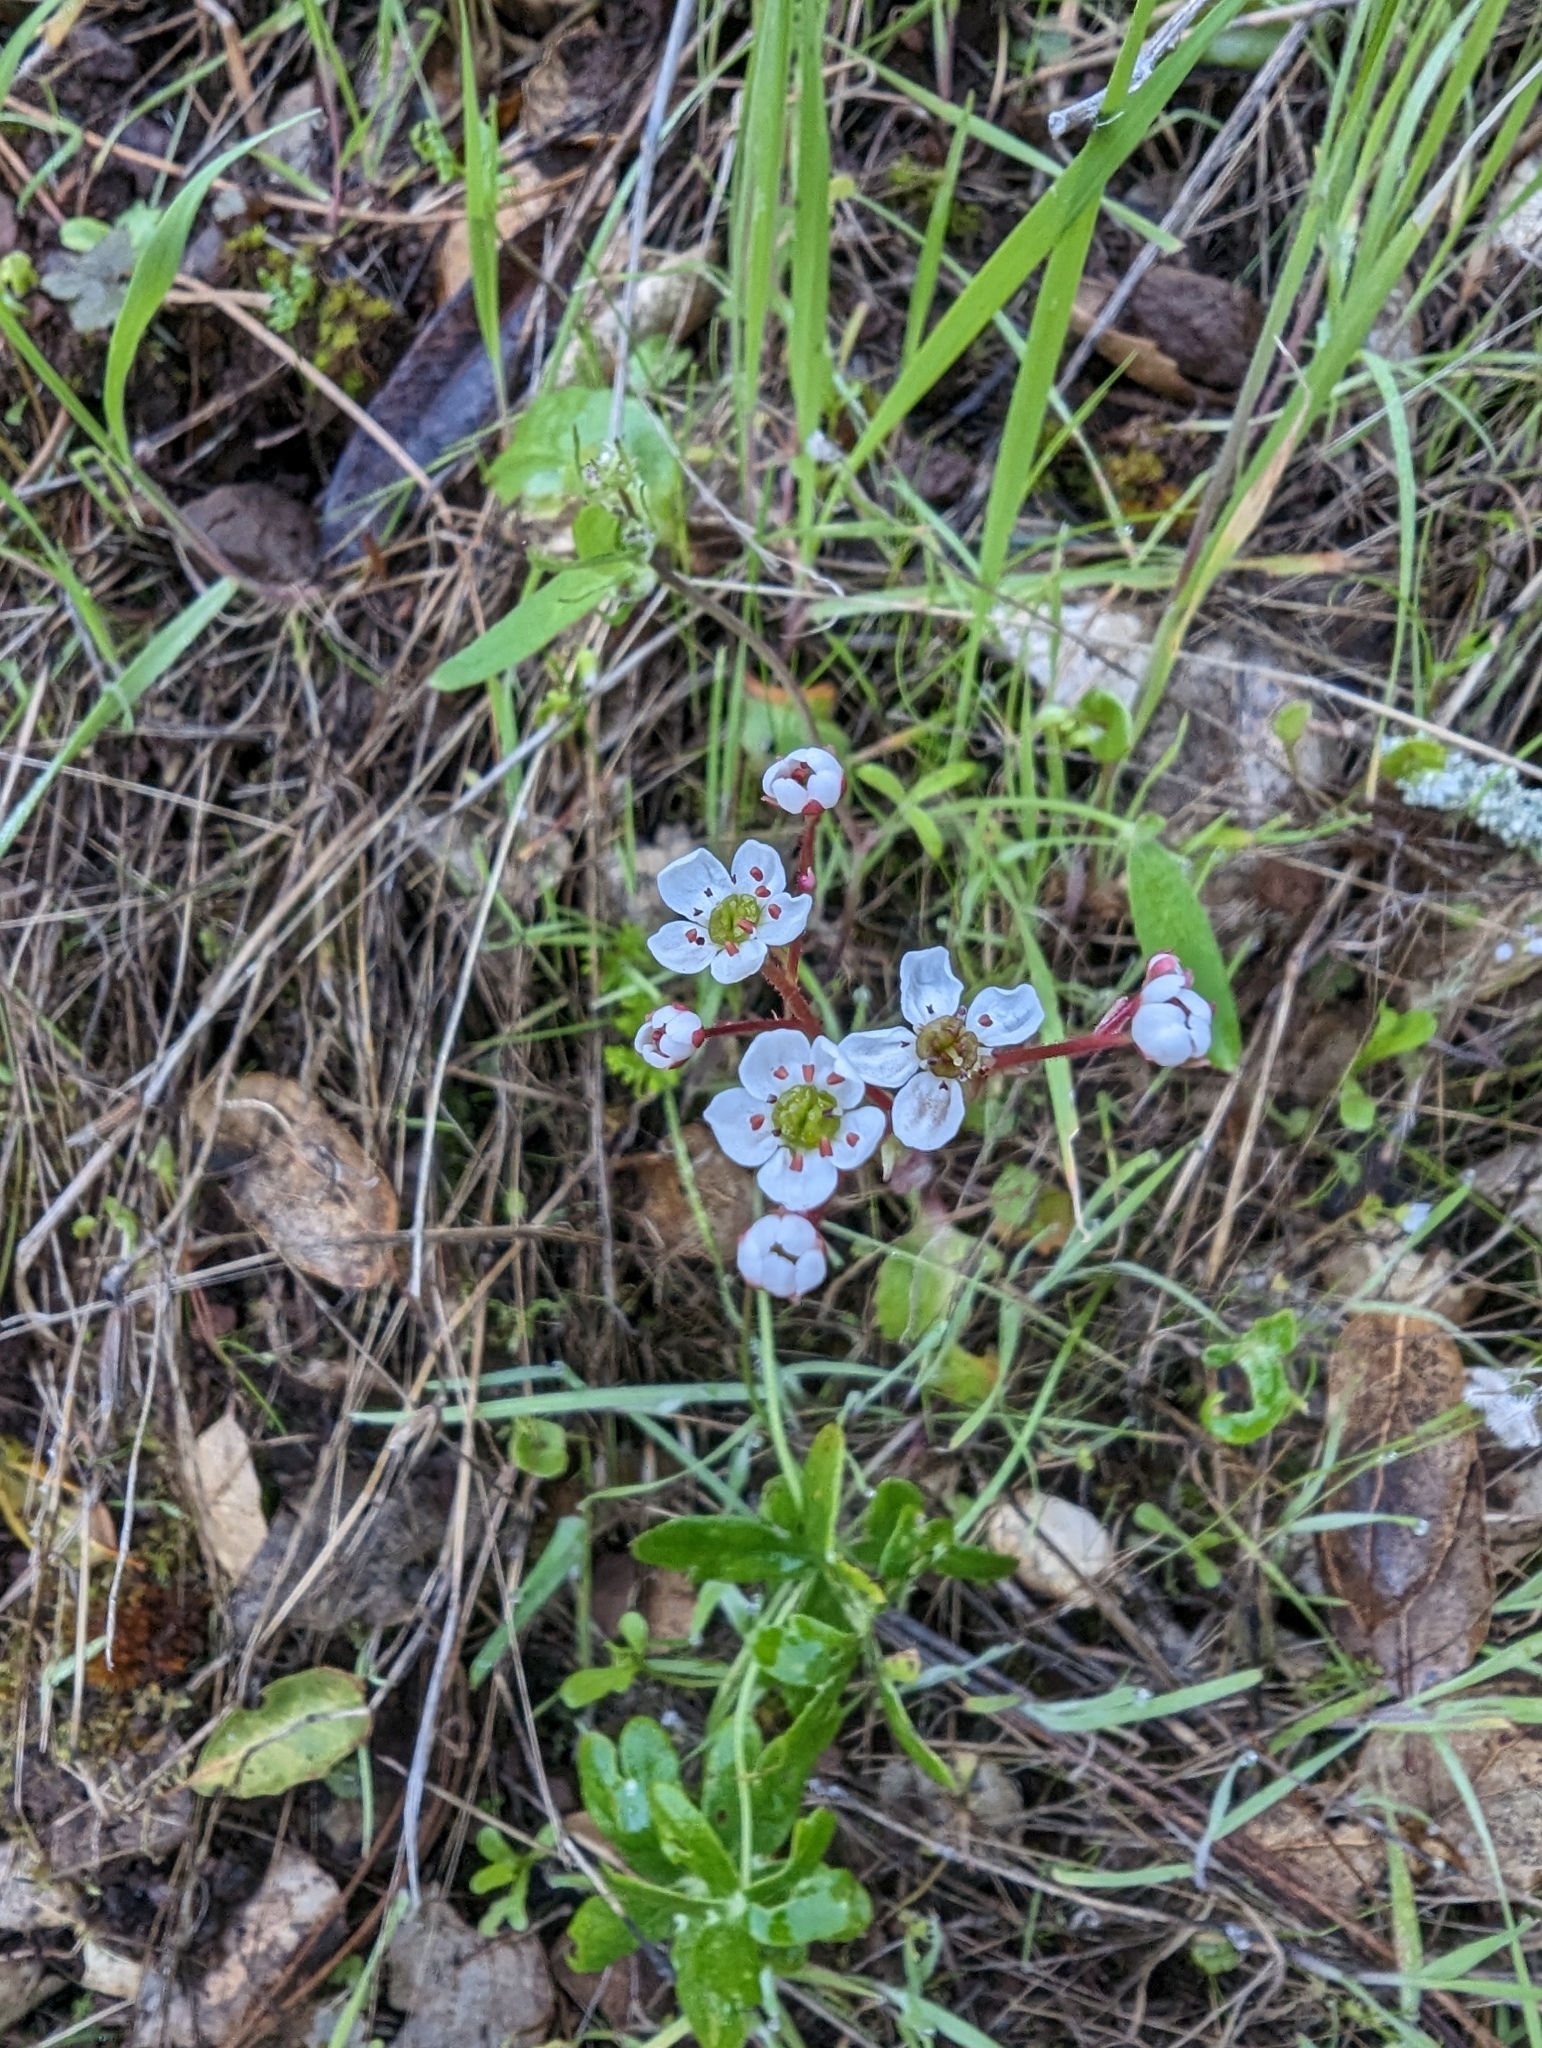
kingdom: Plantae
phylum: Tracheophyta
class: Magnoliopsida
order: Saxifragales
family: Saxifragaceae
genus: Micranthes
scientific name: Micranthes californica
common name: California saxifrage
